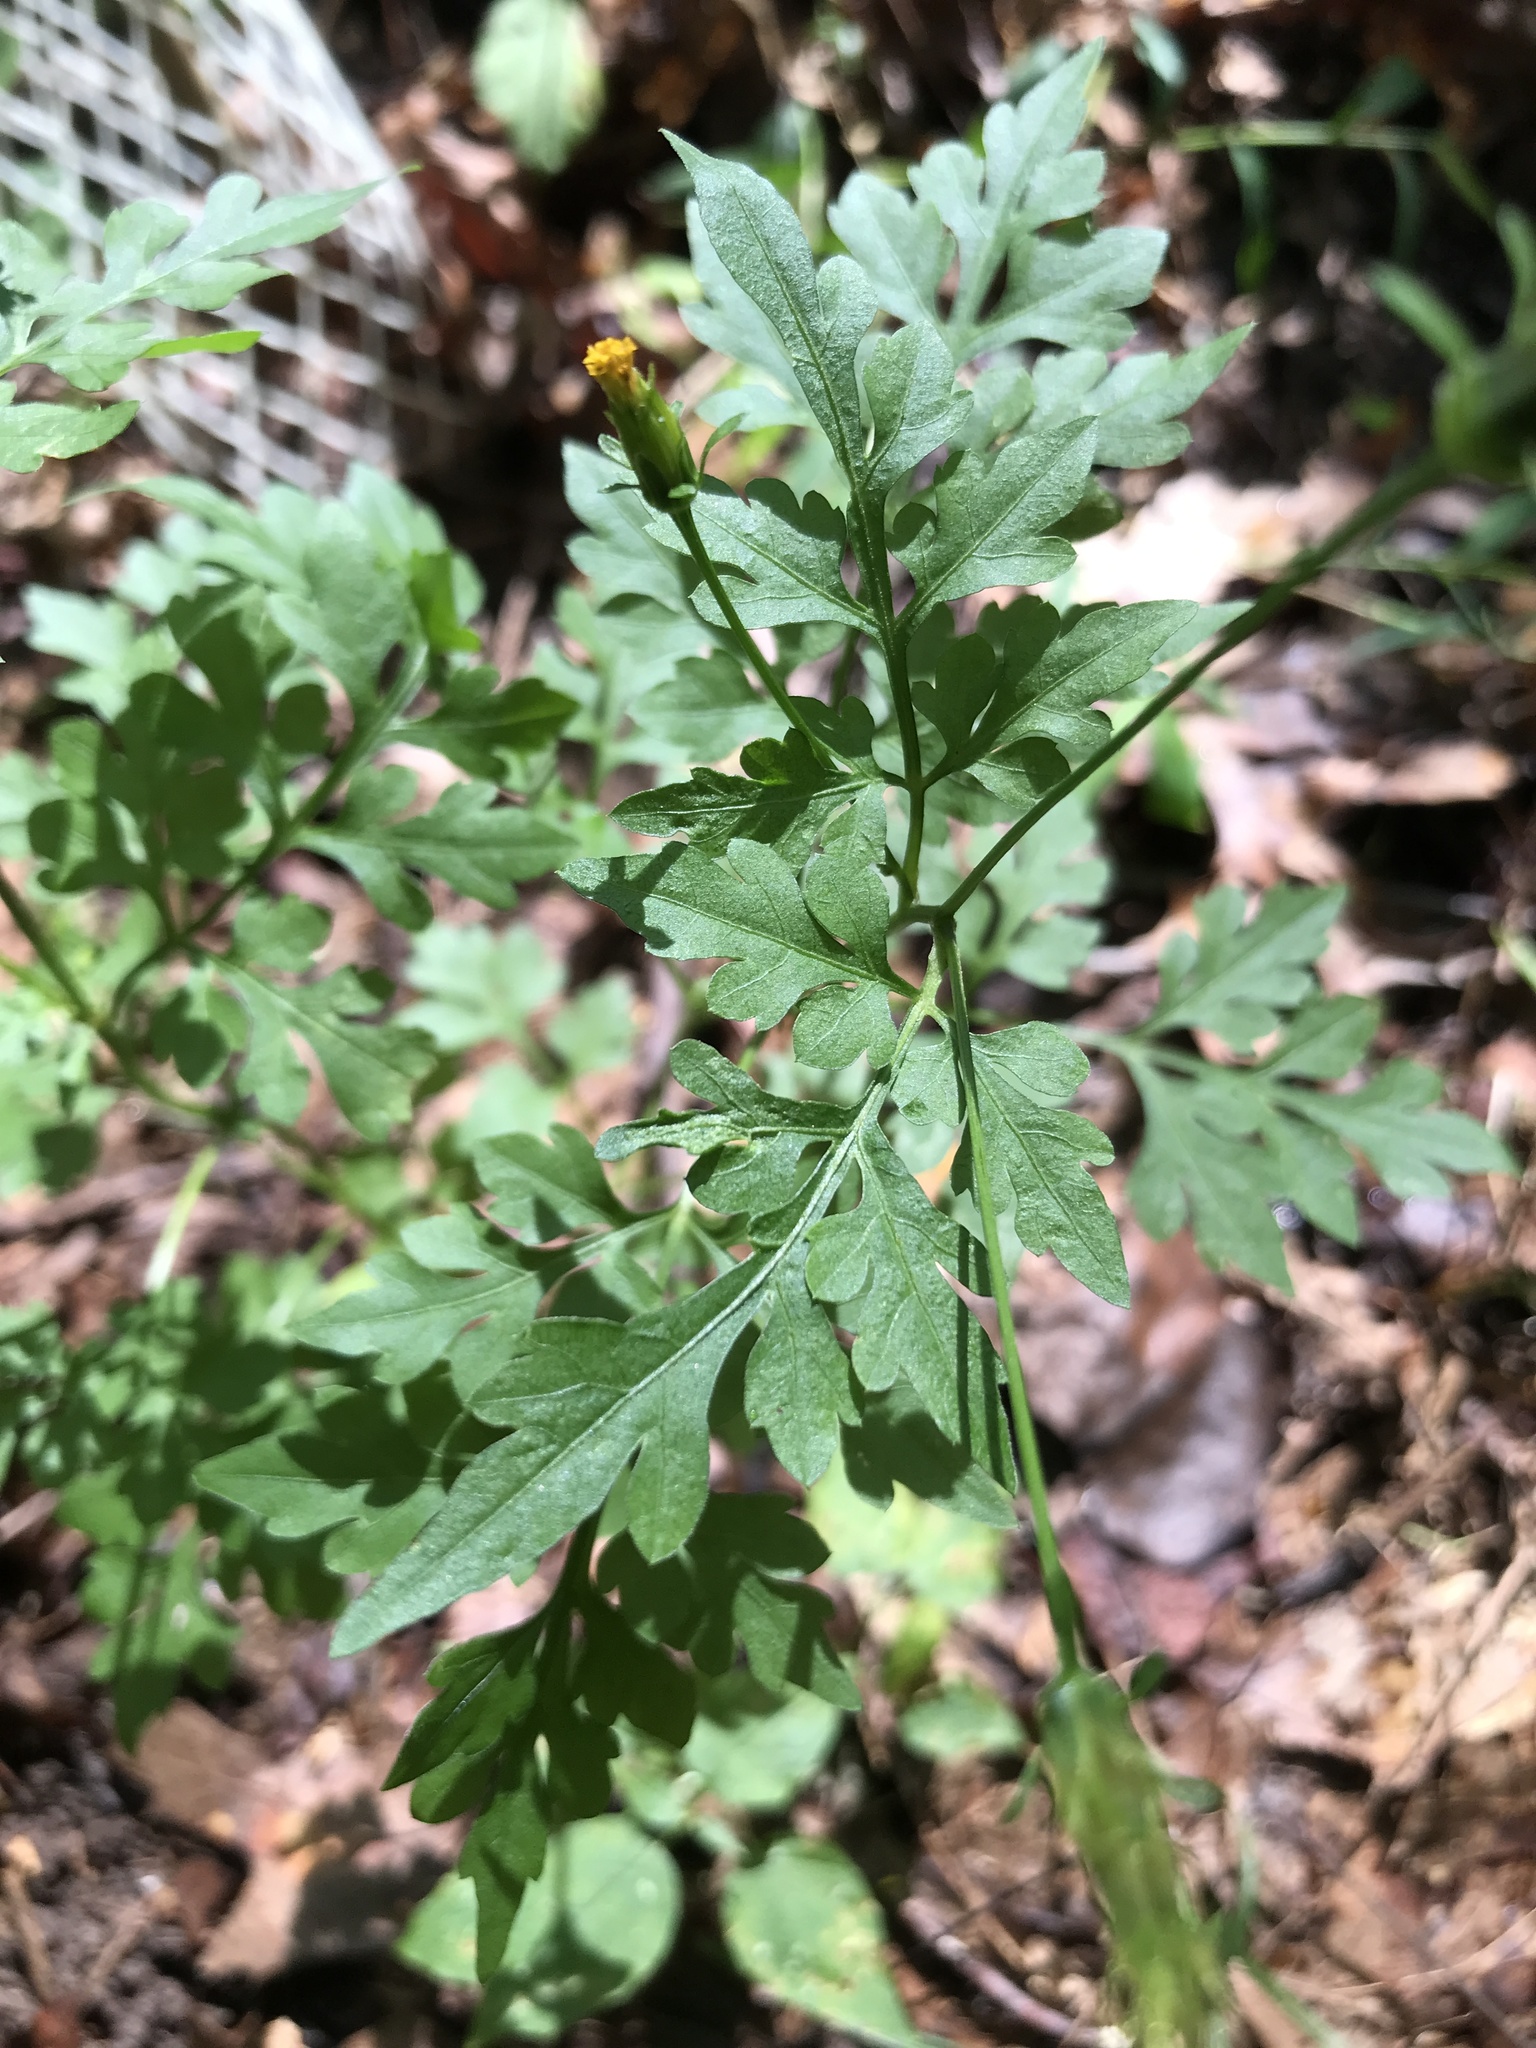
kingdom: Plantae
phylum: Tracheophyta
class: Magnoliopsida
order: Asterales
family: Asteraceae
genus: Bidens
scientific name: Bidens bipinnata
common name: Spanish-needles
